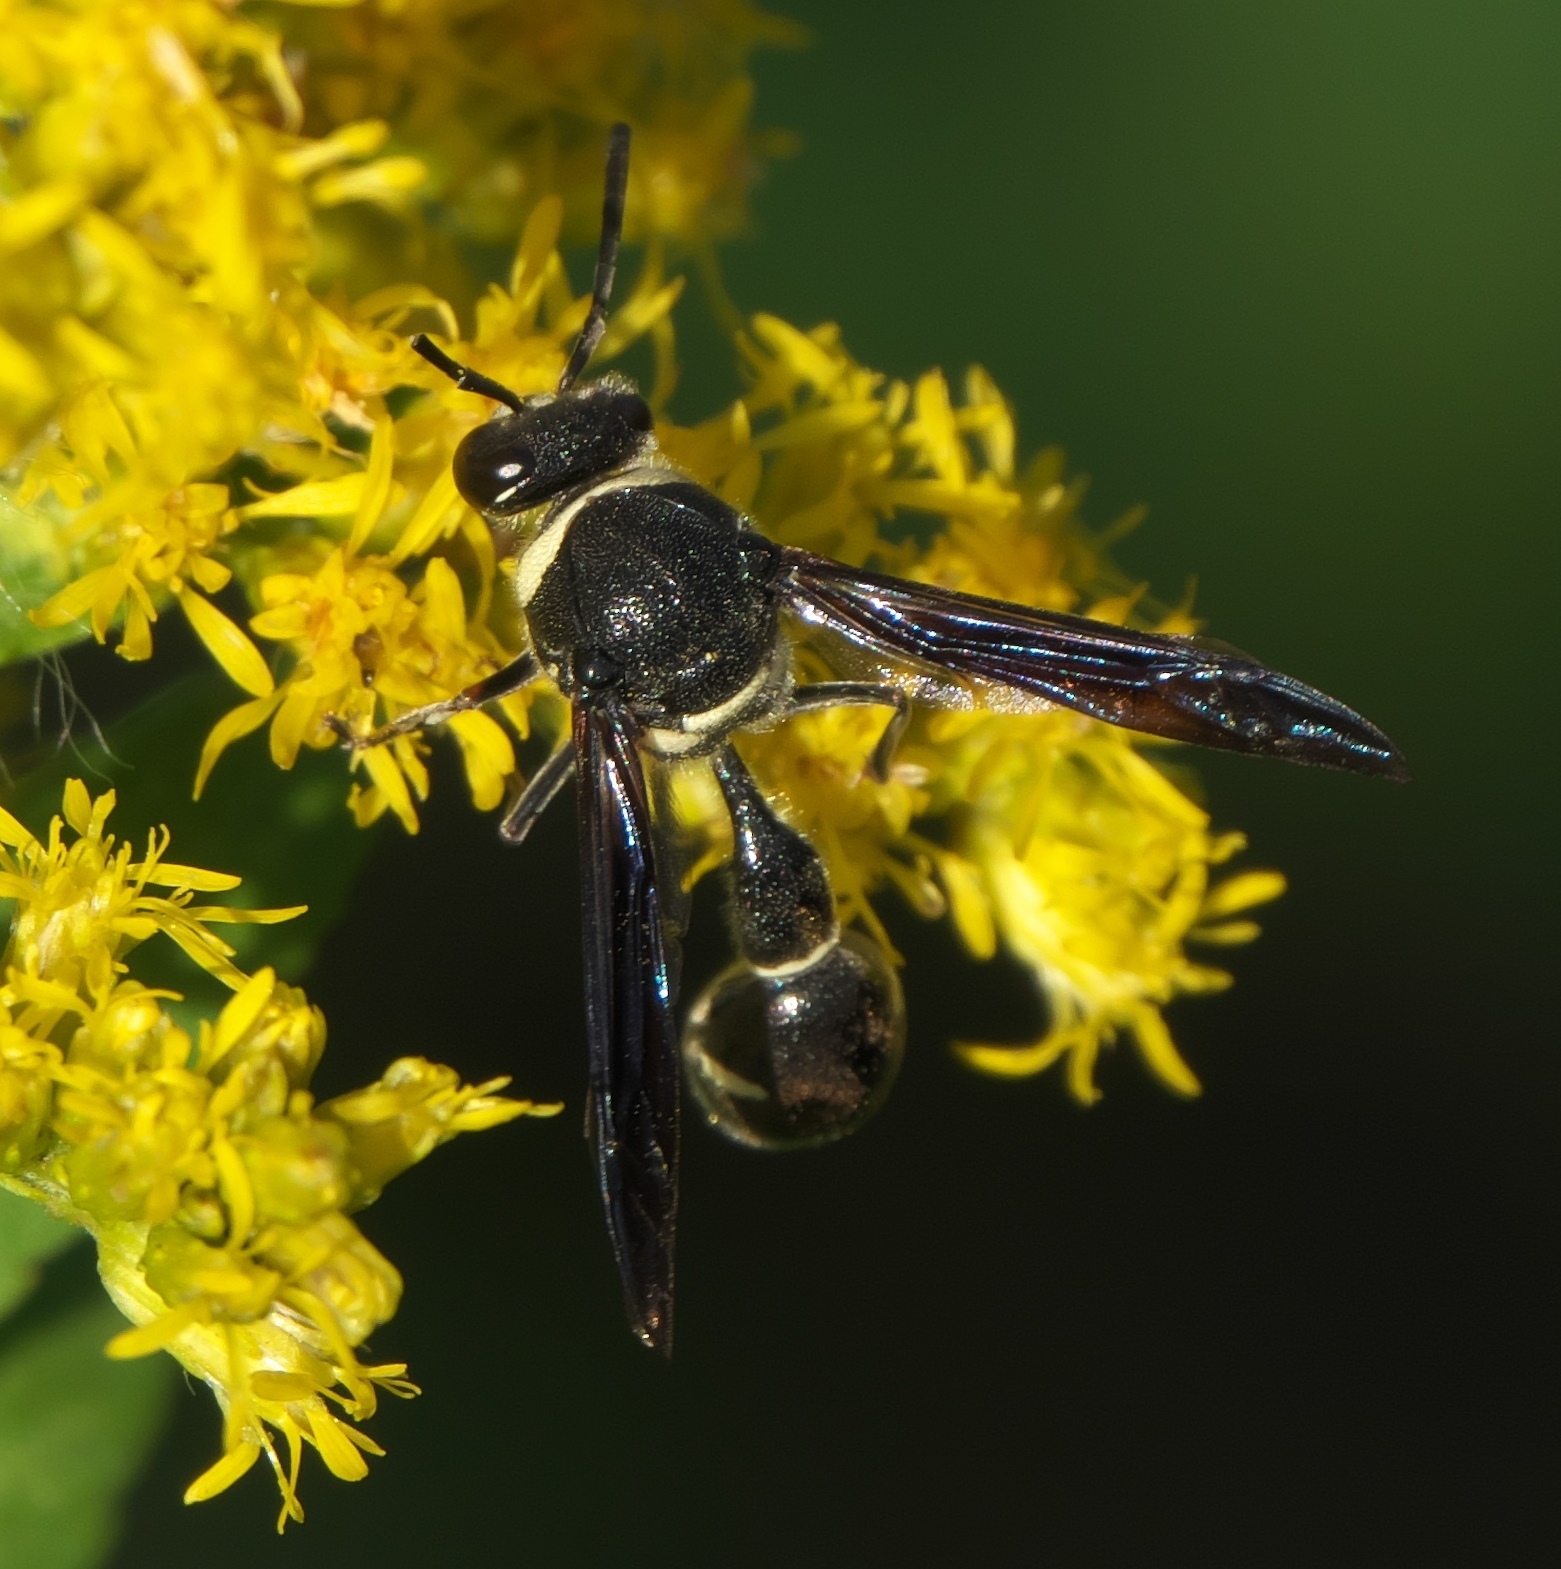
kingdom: Animalia
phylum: Arthropoda
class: Insecta
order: Hymenoptera
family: Vespidae
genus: Eumenes
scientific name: Eumenes fraternus
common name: Fraternal potter wasp
